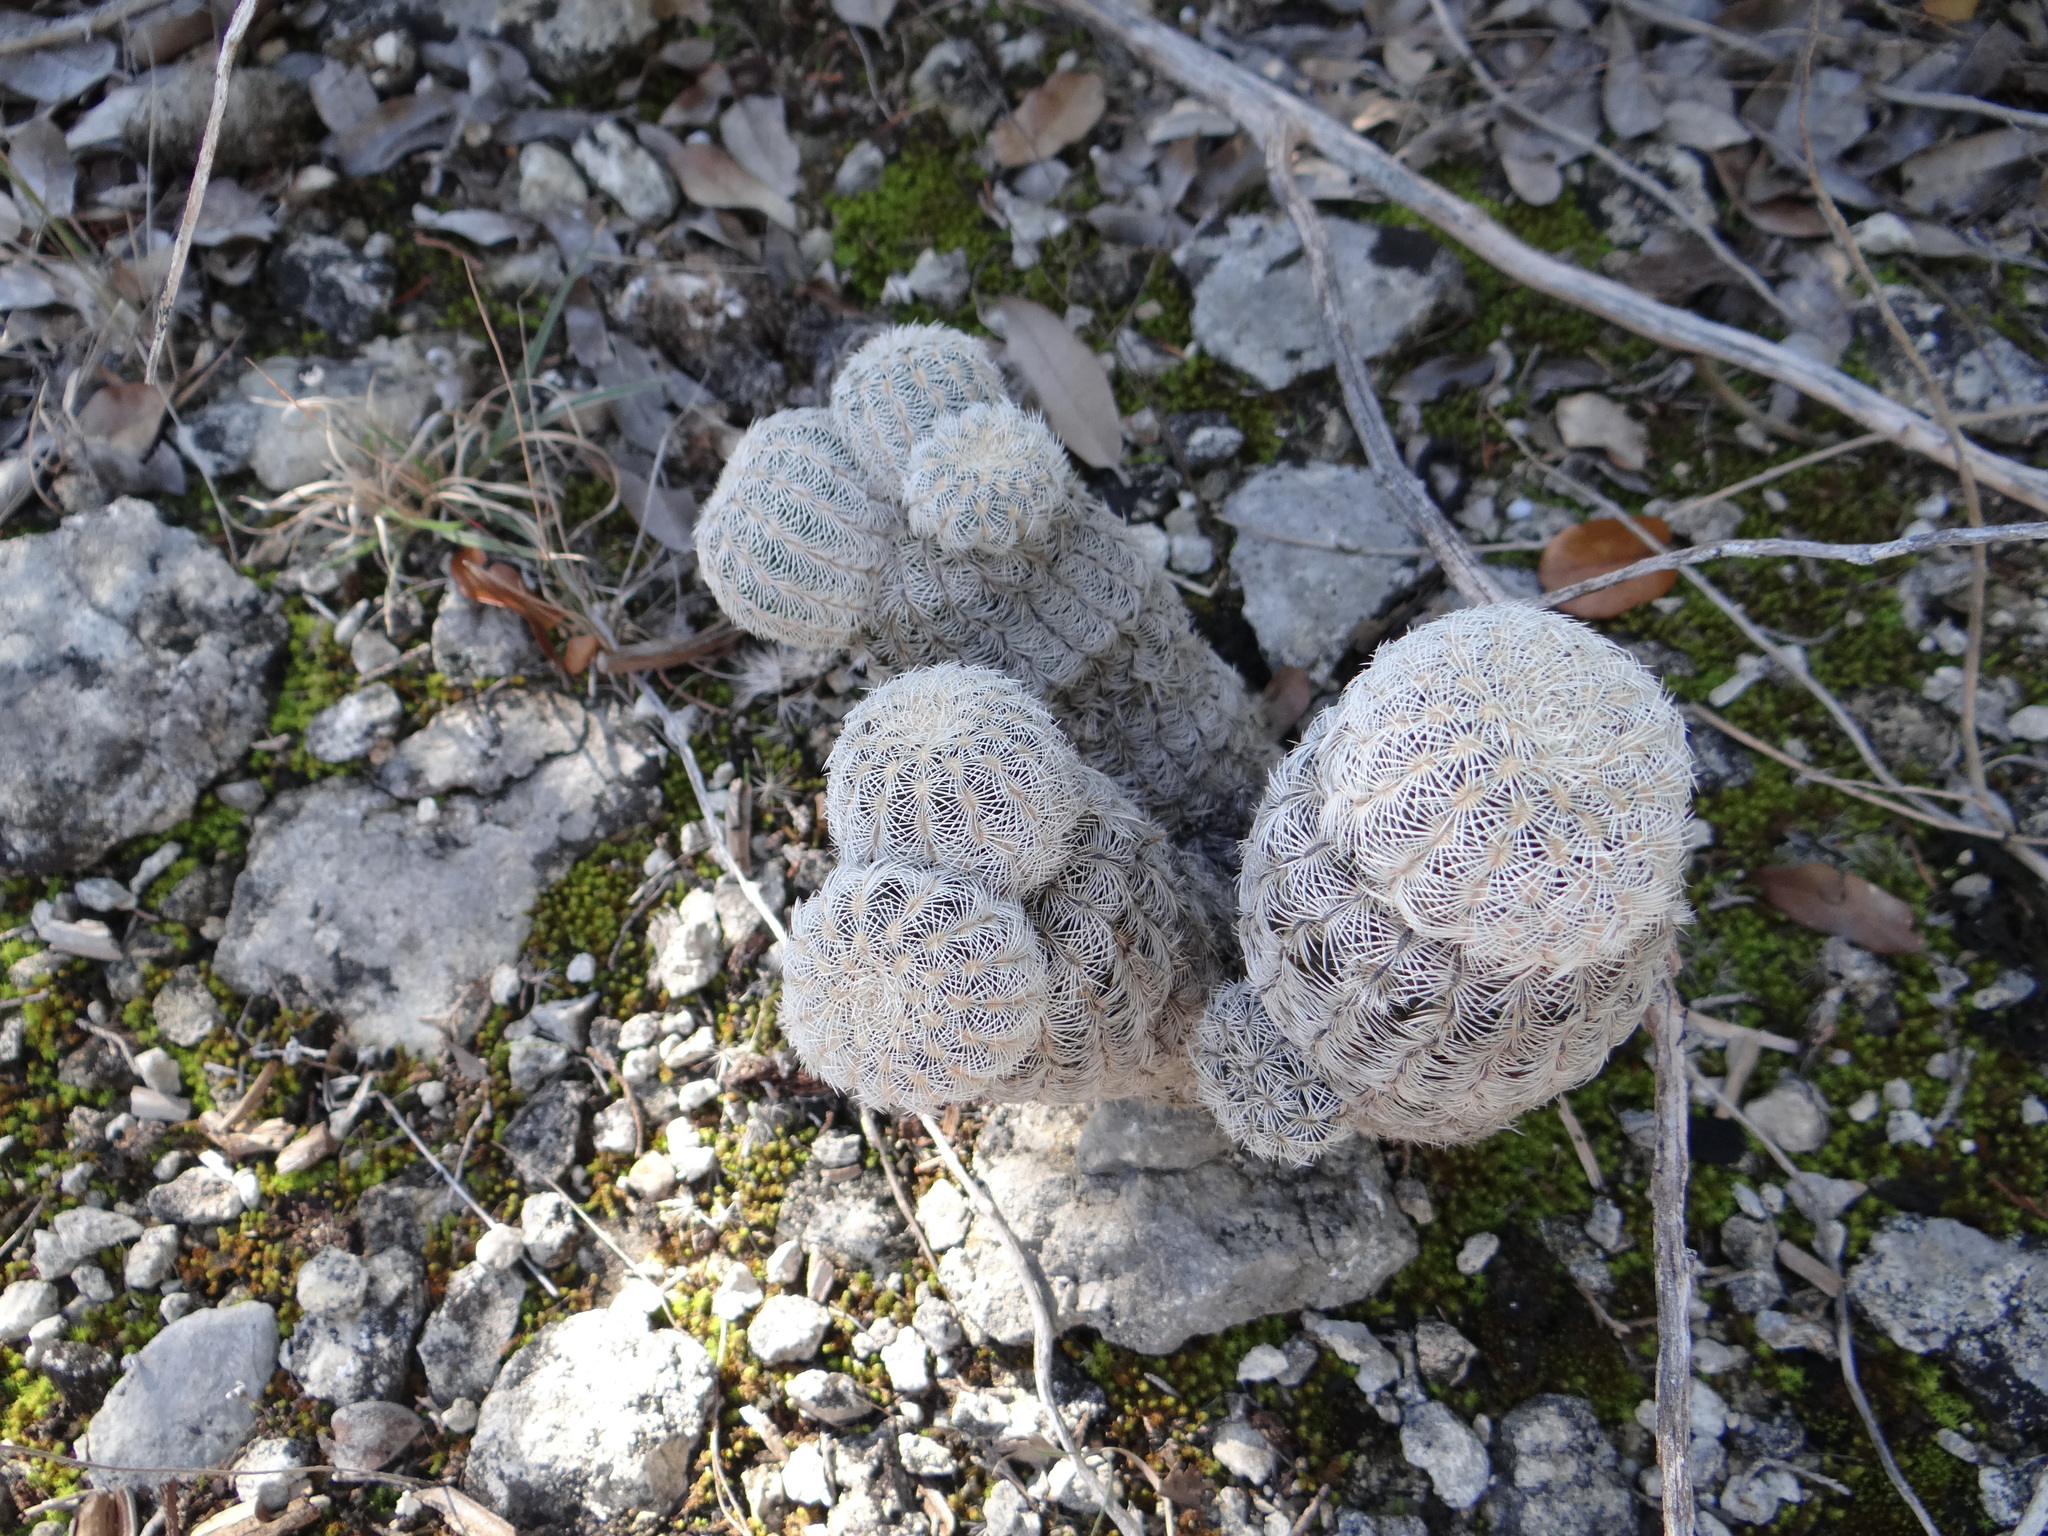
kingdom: Plantae
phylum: Tracheophyta
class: Magnoliopsida
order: Caryophyllales
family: Cactaceae
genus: Echinocereus
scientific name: Echinocereus reichenbachii
